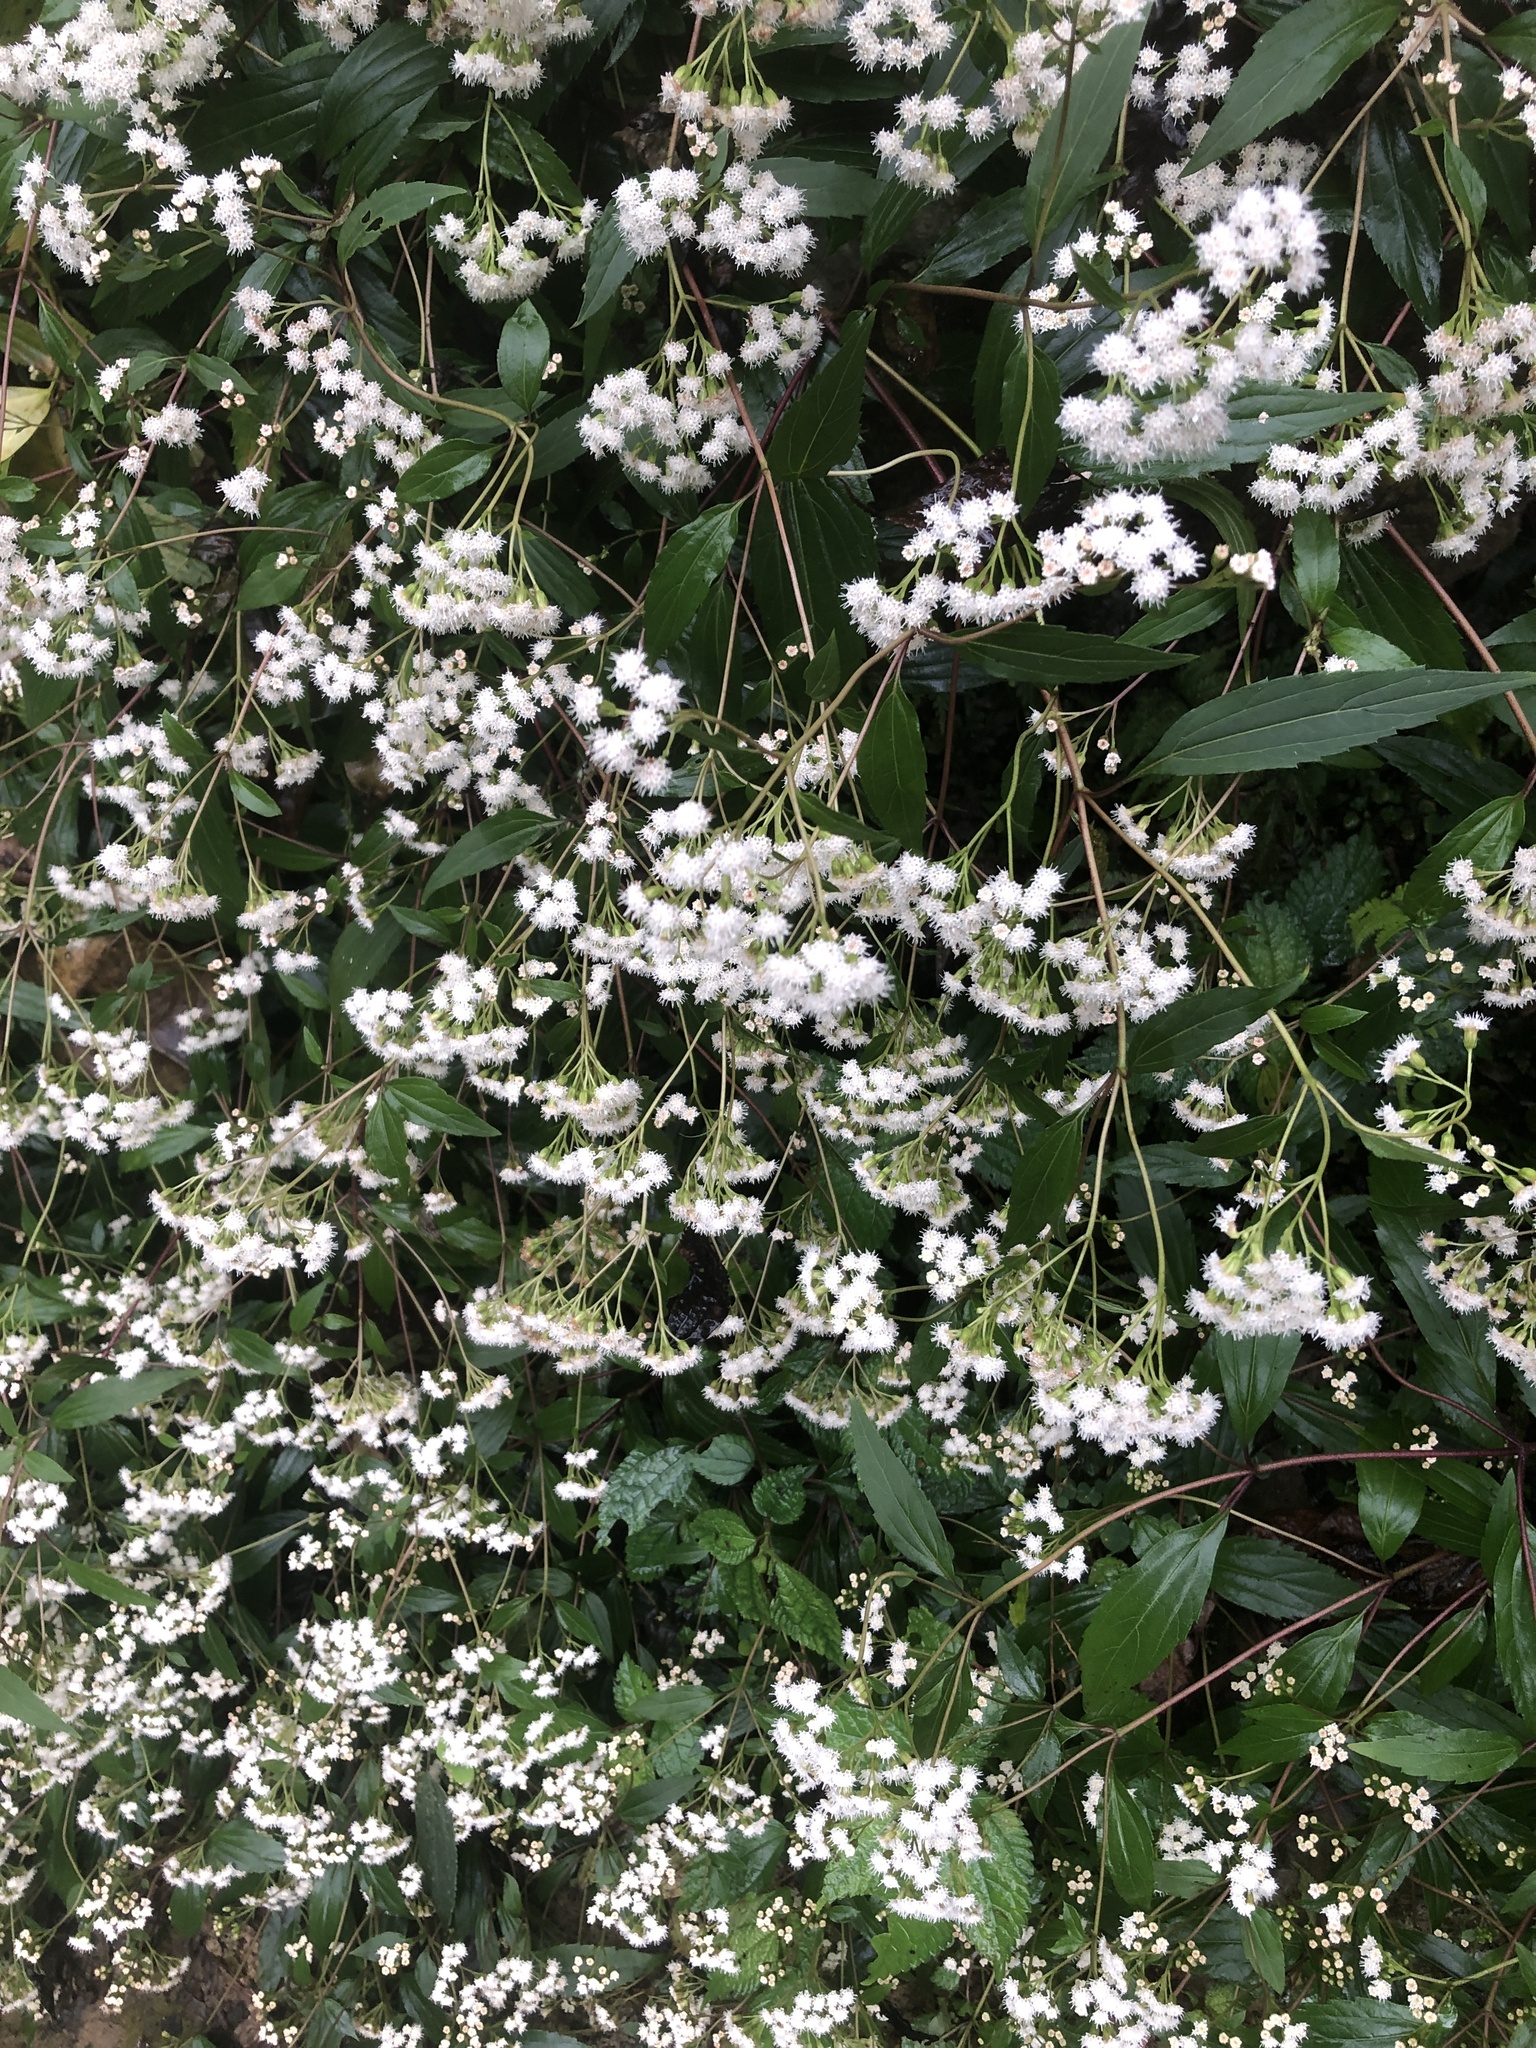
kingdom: Plantae
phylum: Tracheophyta
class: Magnoliopsida
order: Asterales
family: Asteraceae
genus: Ageratina
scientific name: Ageratina riparia
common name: Creeping croftonweed
